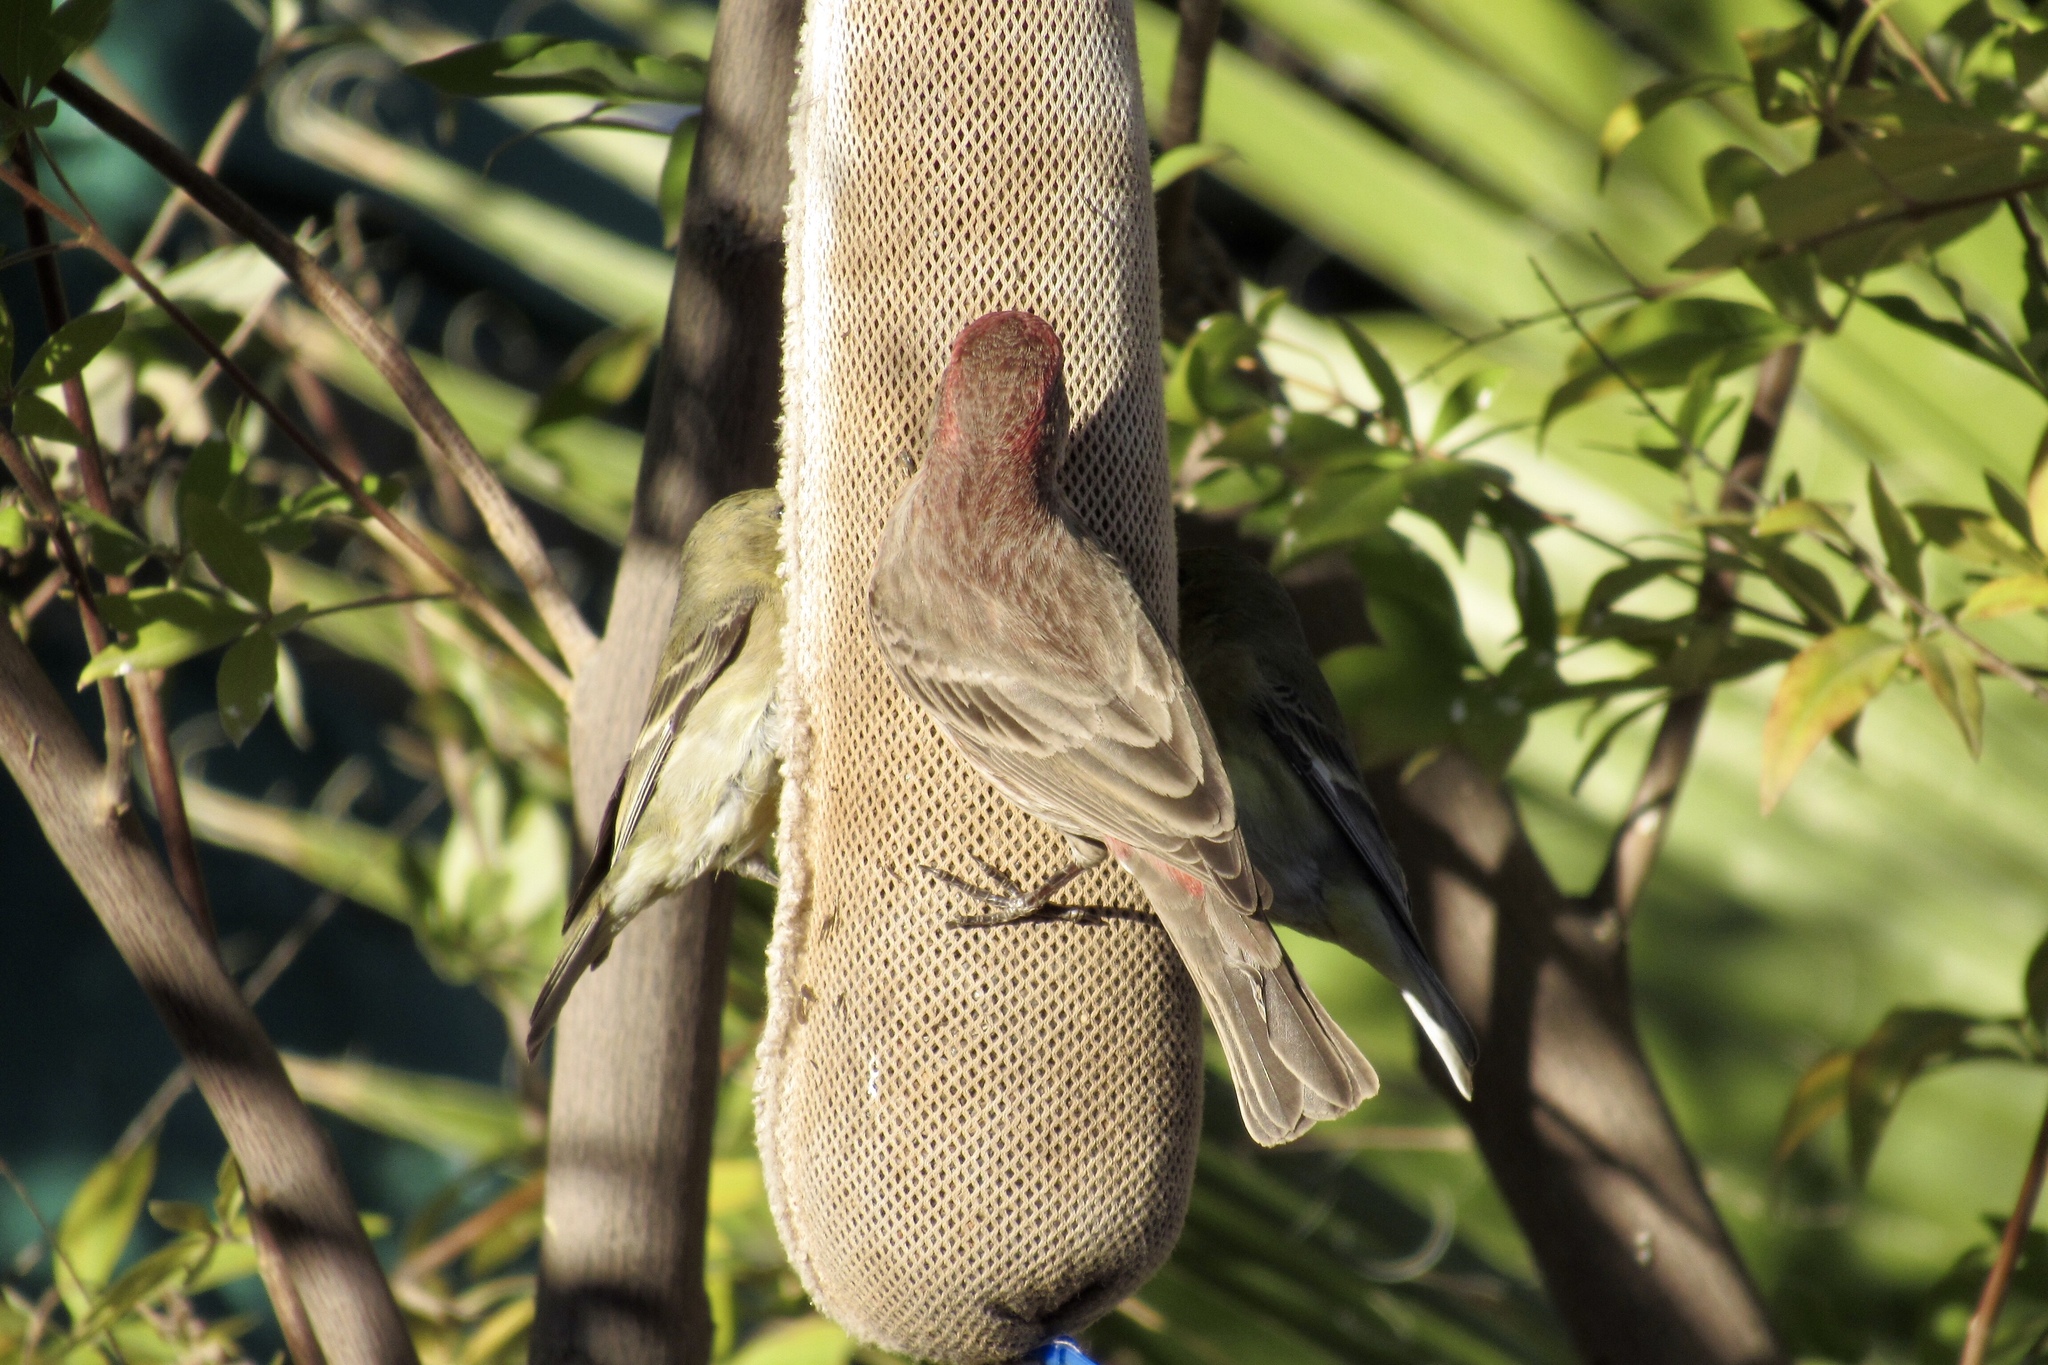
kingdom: Animalia
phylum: Chordata
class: Aves
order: Passeriformes
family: Fringillidae
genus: Spinus
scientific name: Spinus psaltria
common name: Lesser goldfinch
